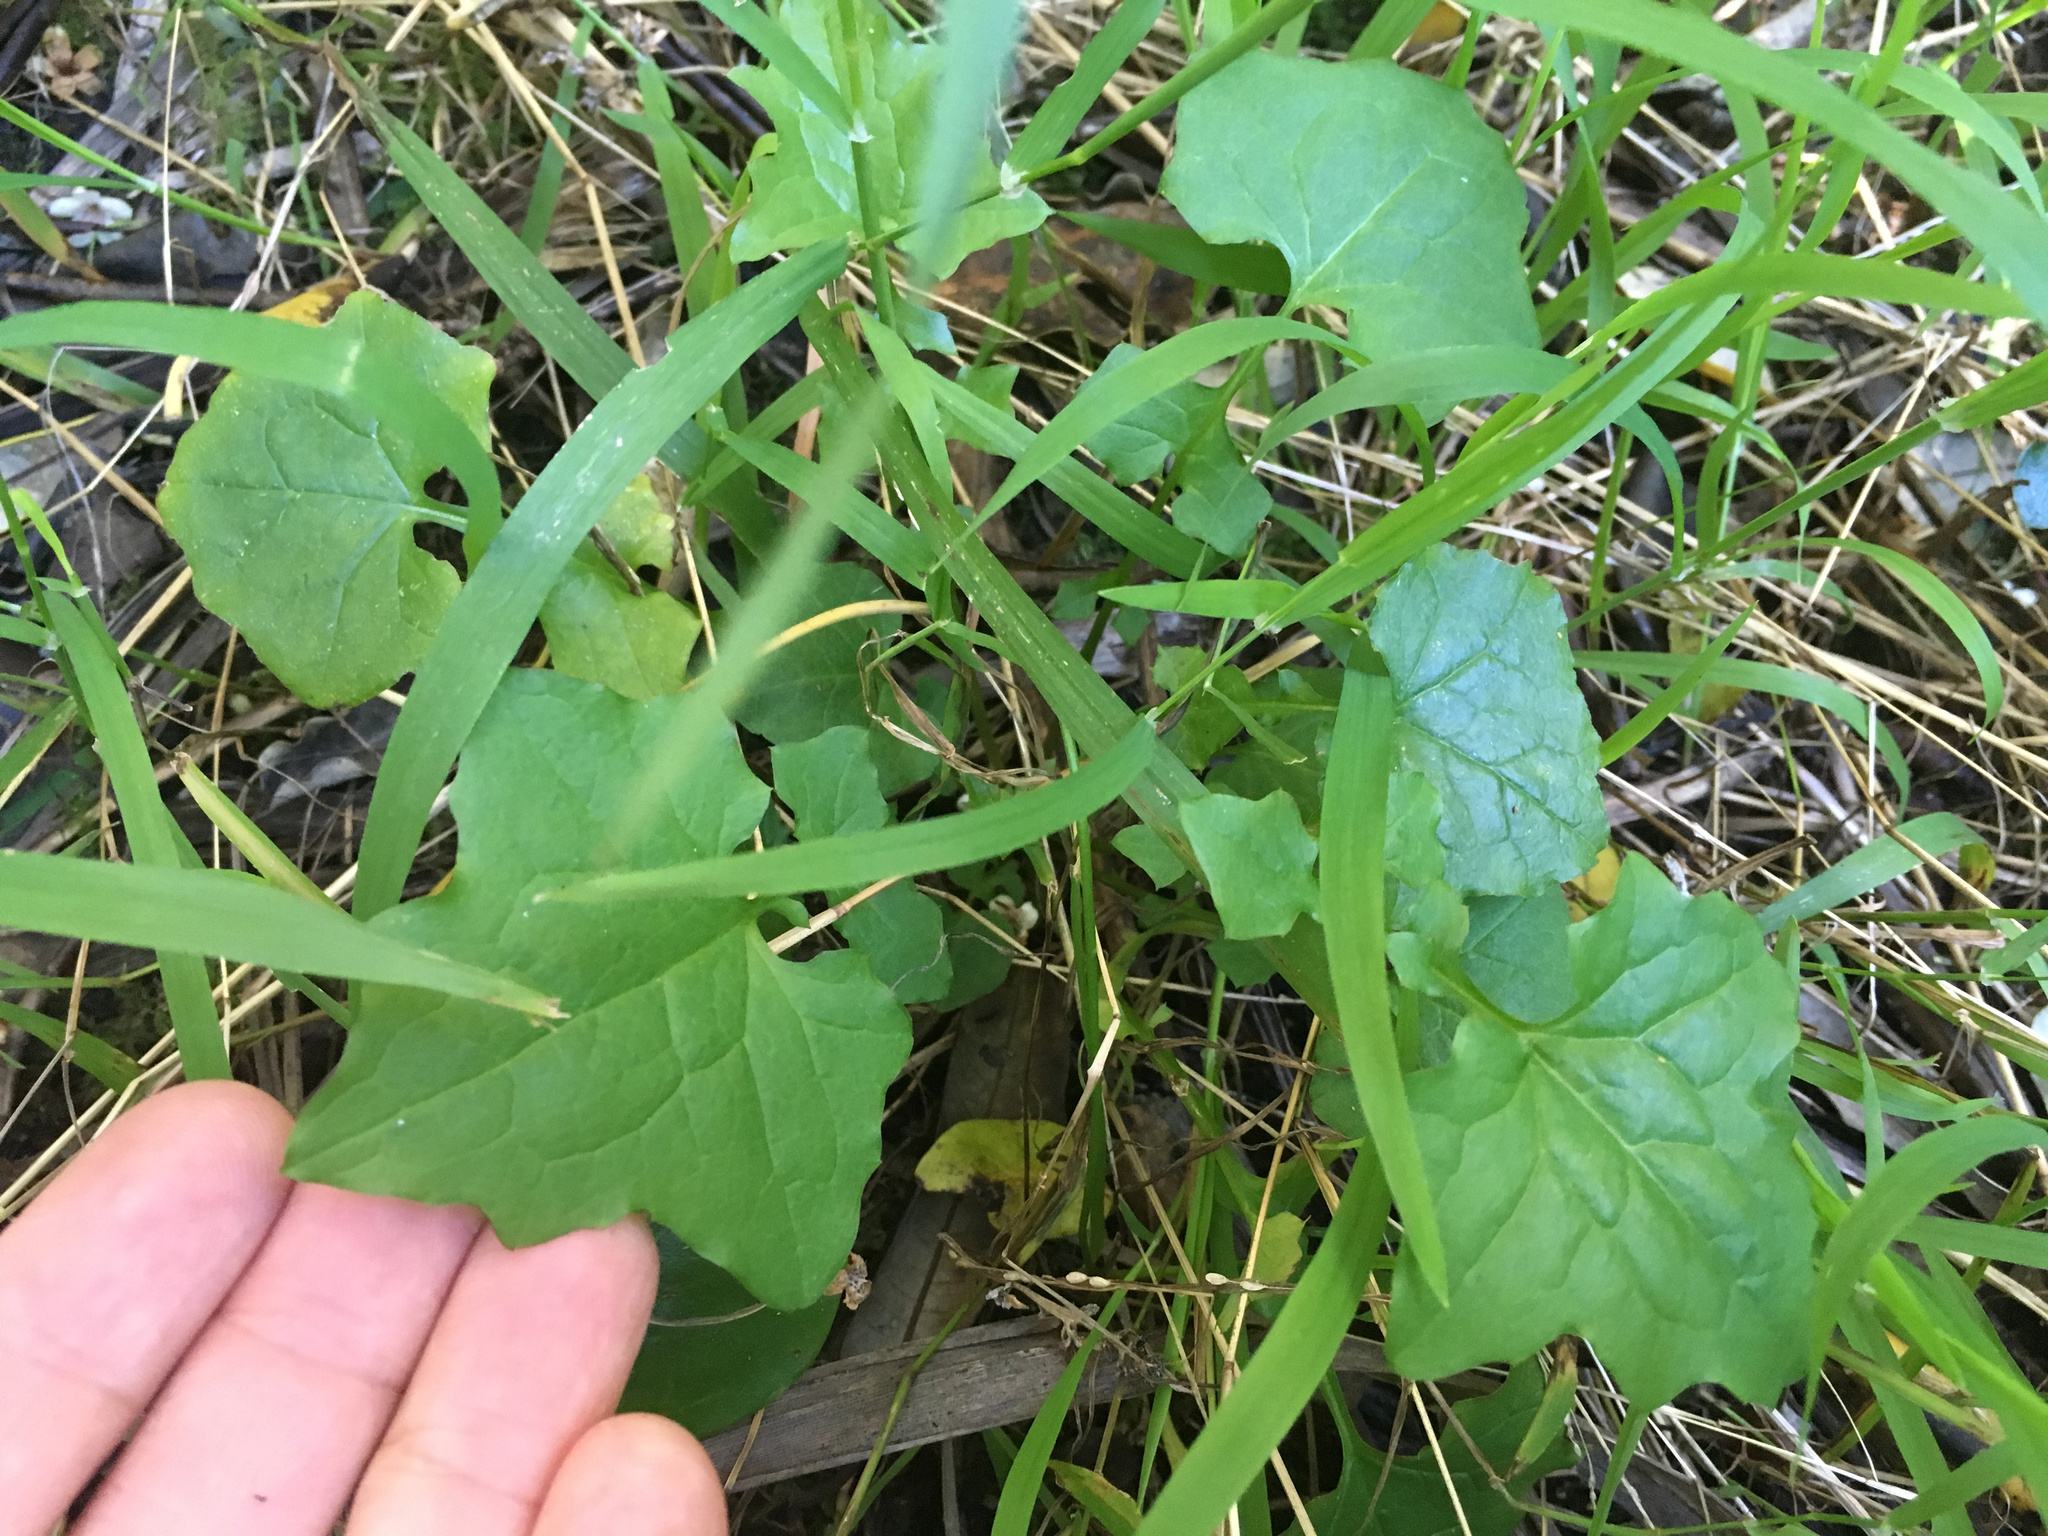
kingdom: Plantae
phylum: Tracheophyta
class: Magnoliopsida
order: Asterales
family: Asteraceae
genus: Mycelis
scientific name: Mycelis muralis
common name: Wall lettuce
